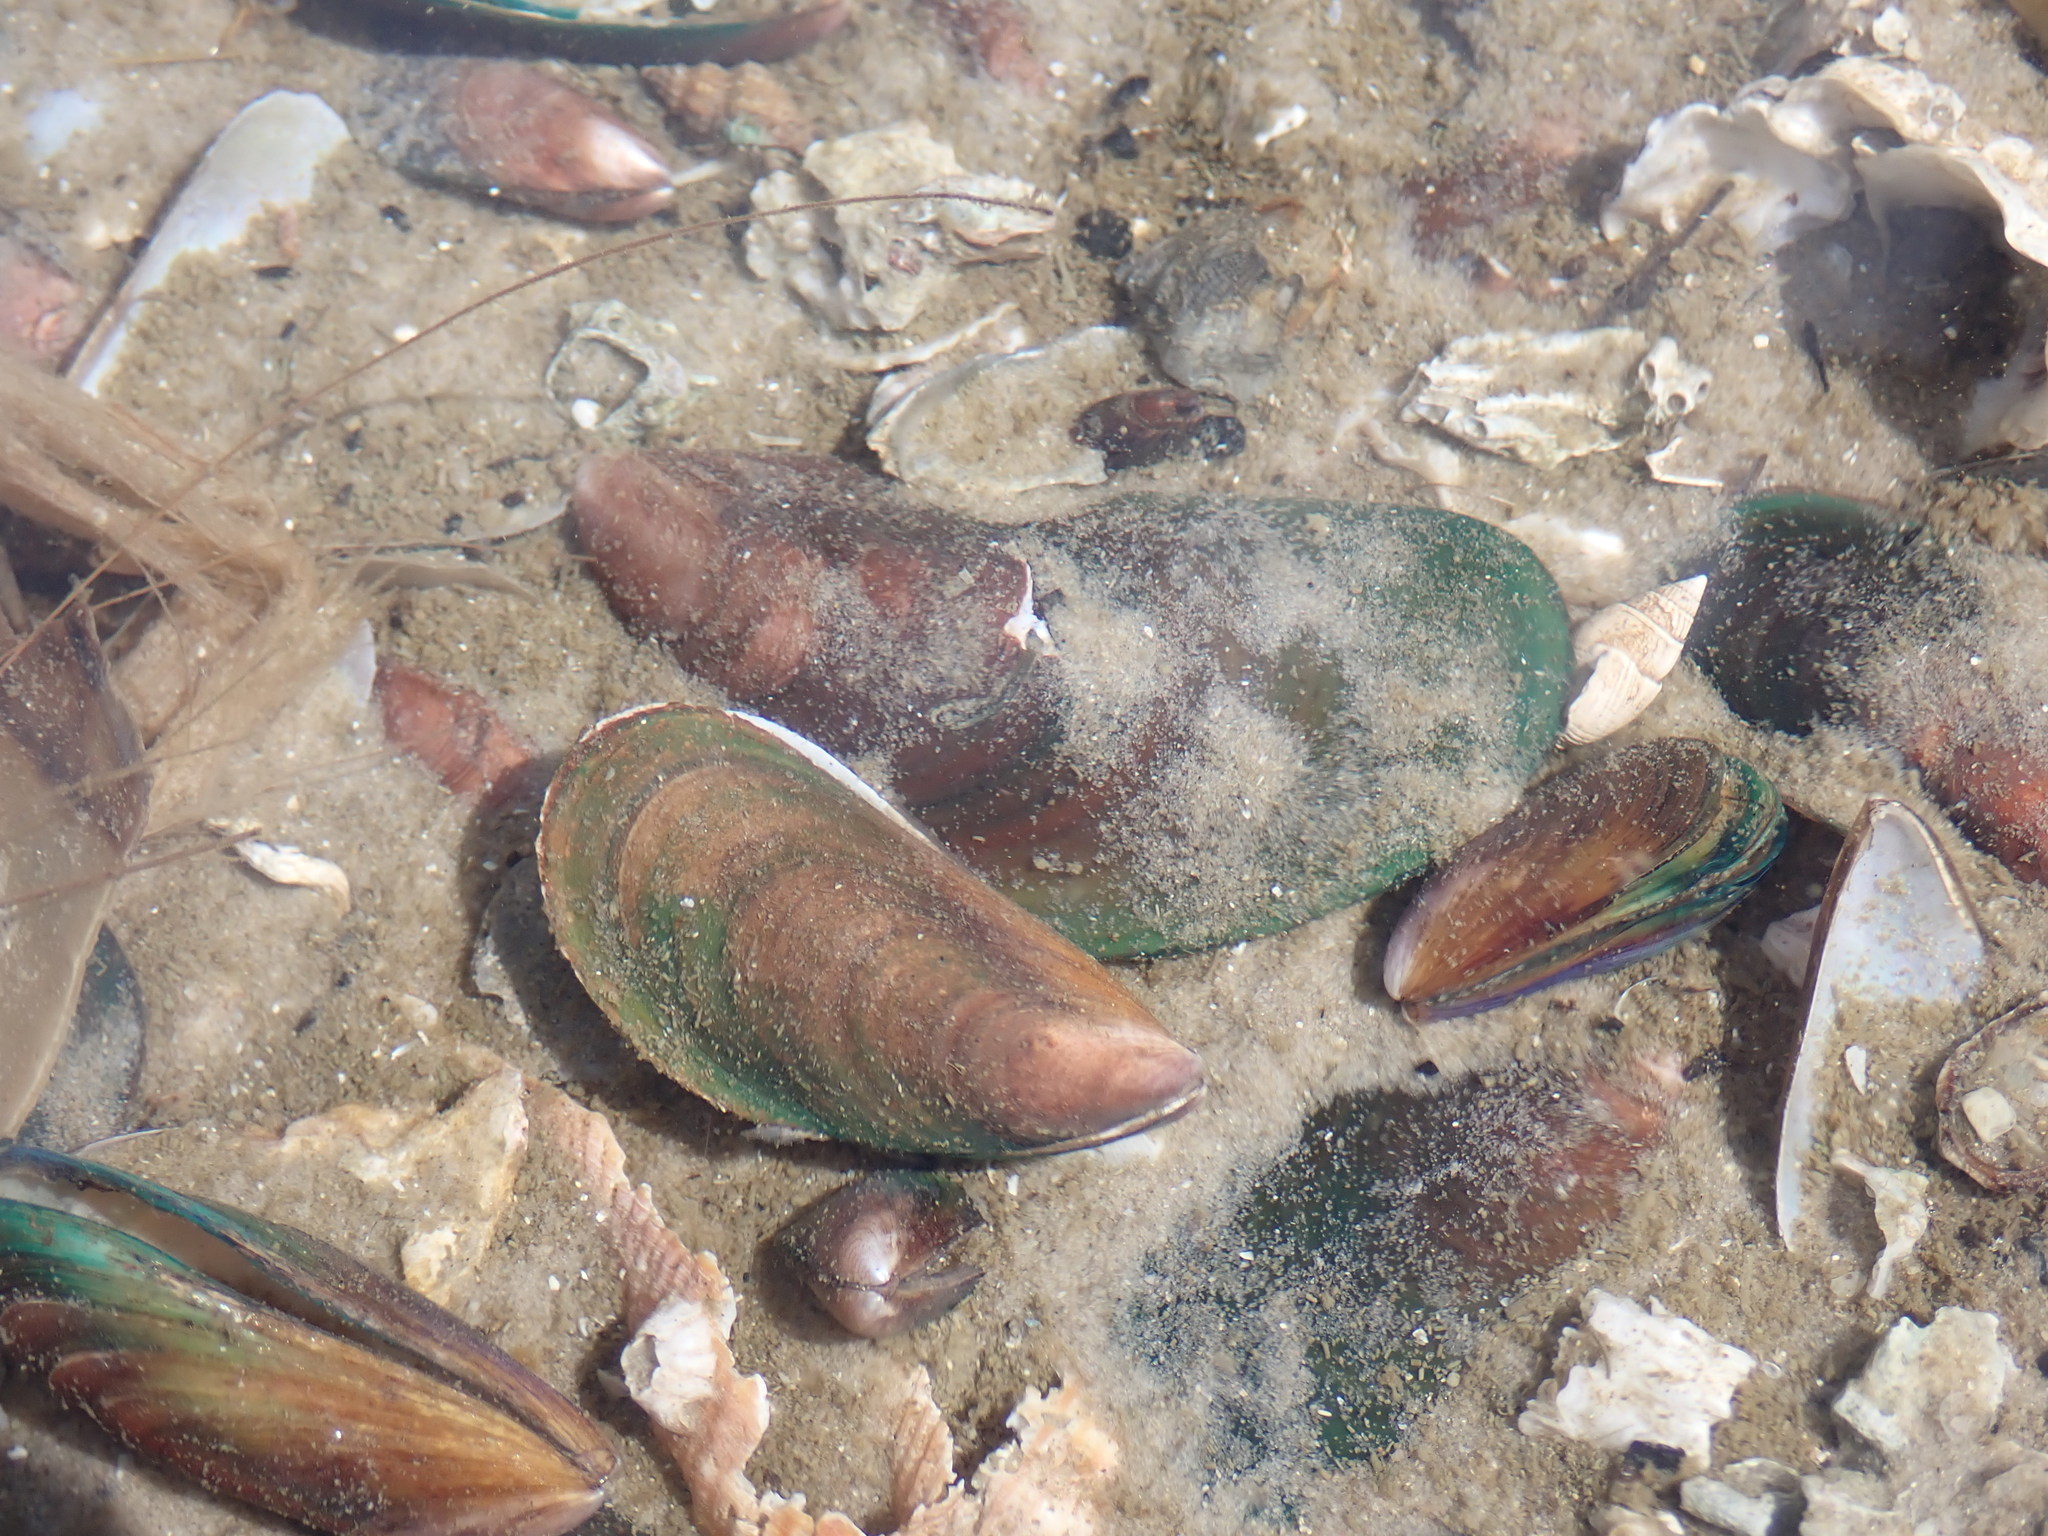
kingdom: Animalia
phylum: Mollusca
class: Bivalvia
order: Mytilida
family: Mytilidae
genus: Perna
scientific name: Perna viridis
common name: Green mussel
